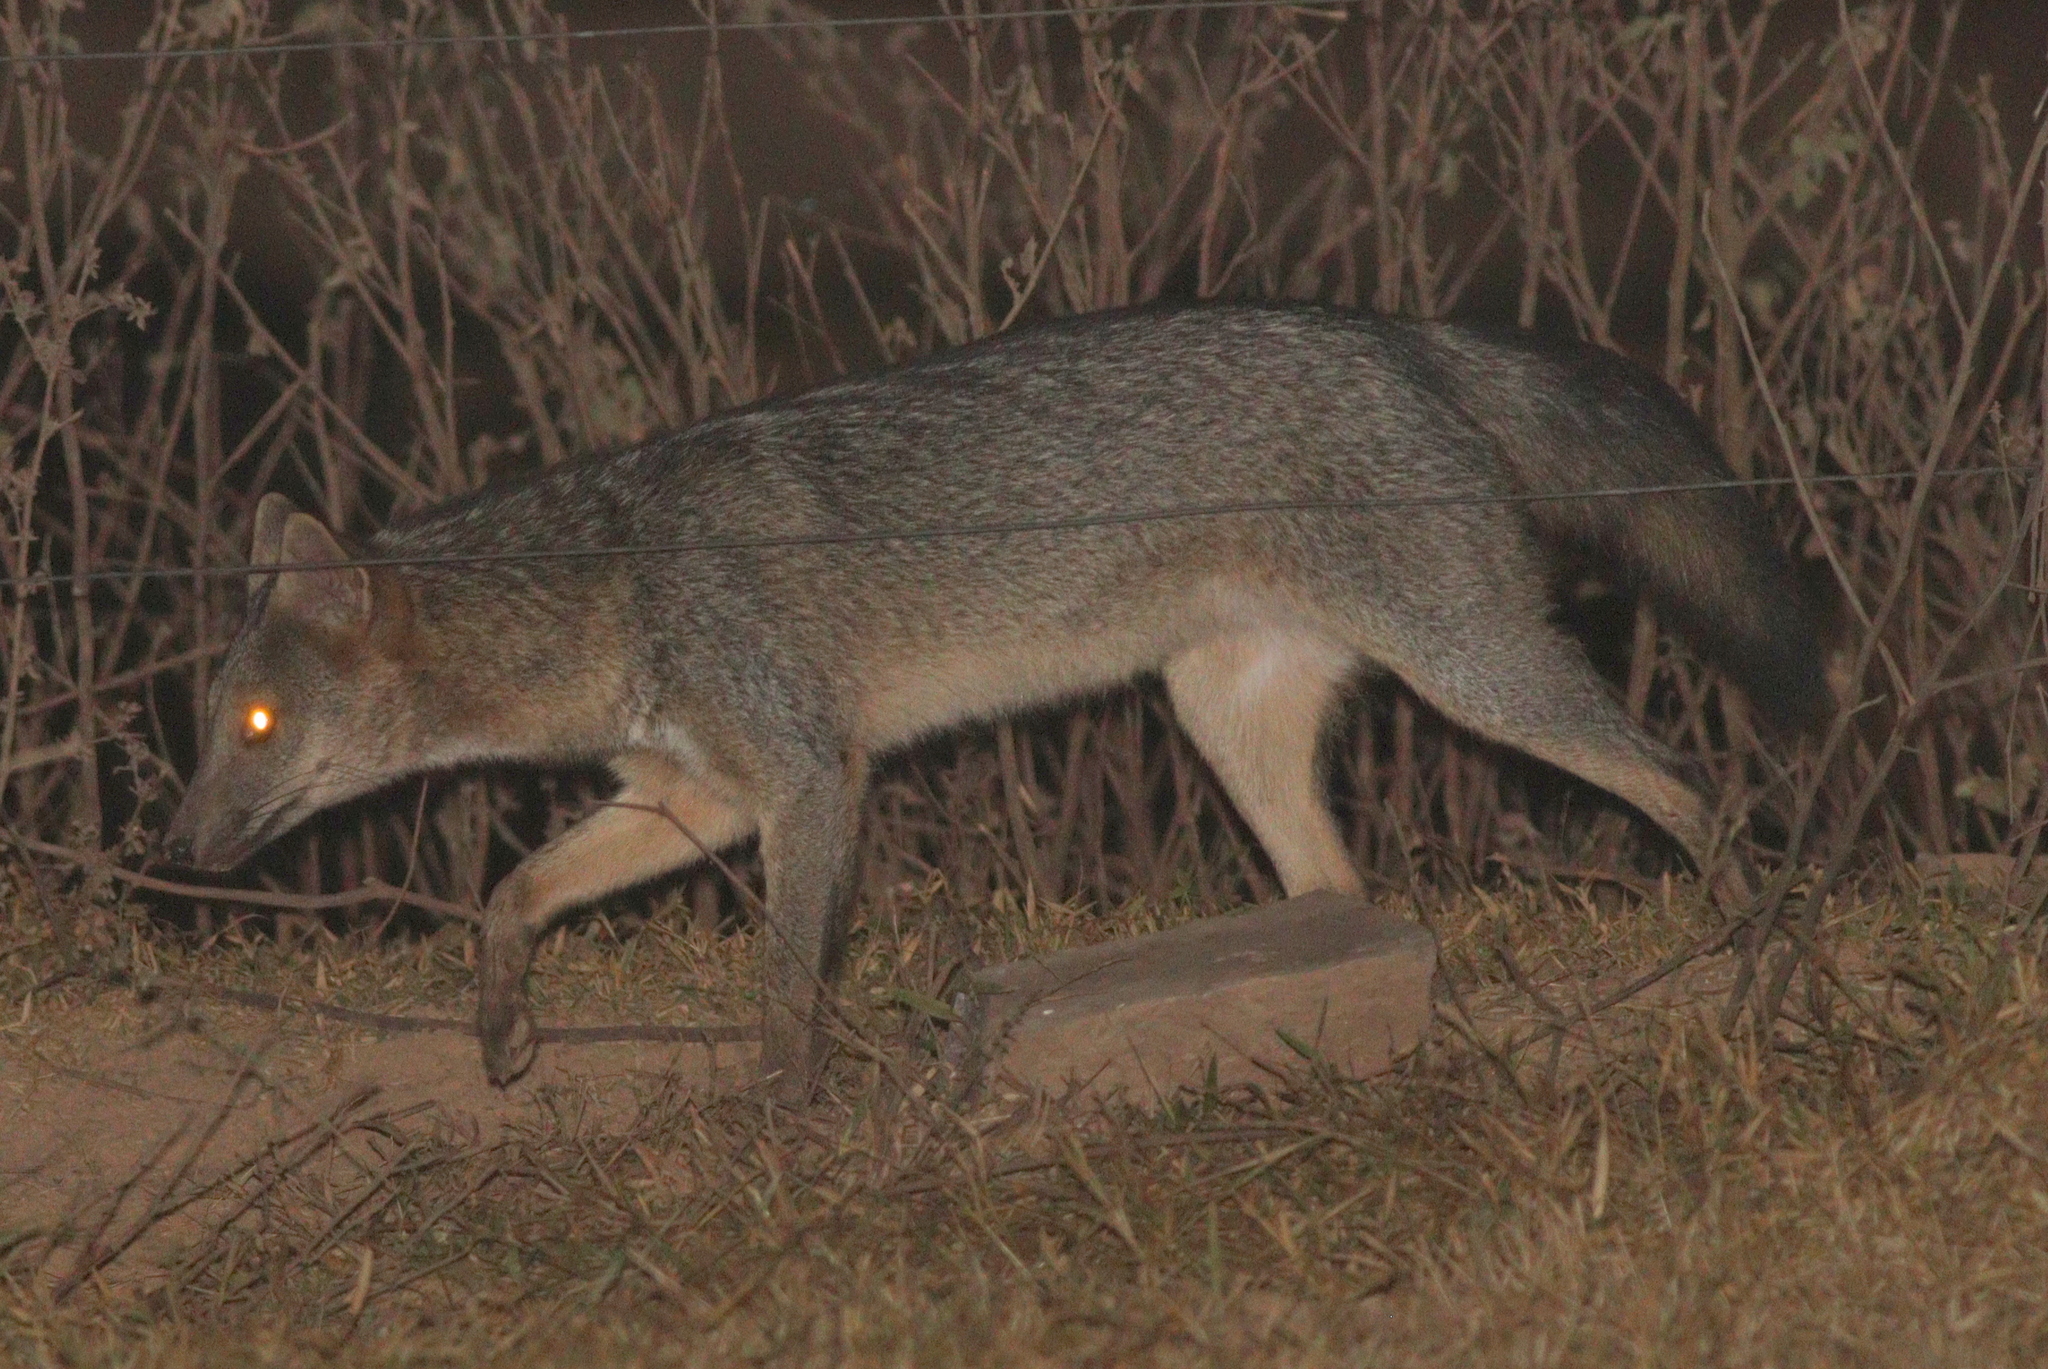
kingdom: Animalia
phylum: Chordata
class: Mammalia
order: Carnivora
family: Canidae
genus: Cerdocyon
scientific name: Cerdocyon thous
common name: Crab-eating fox
